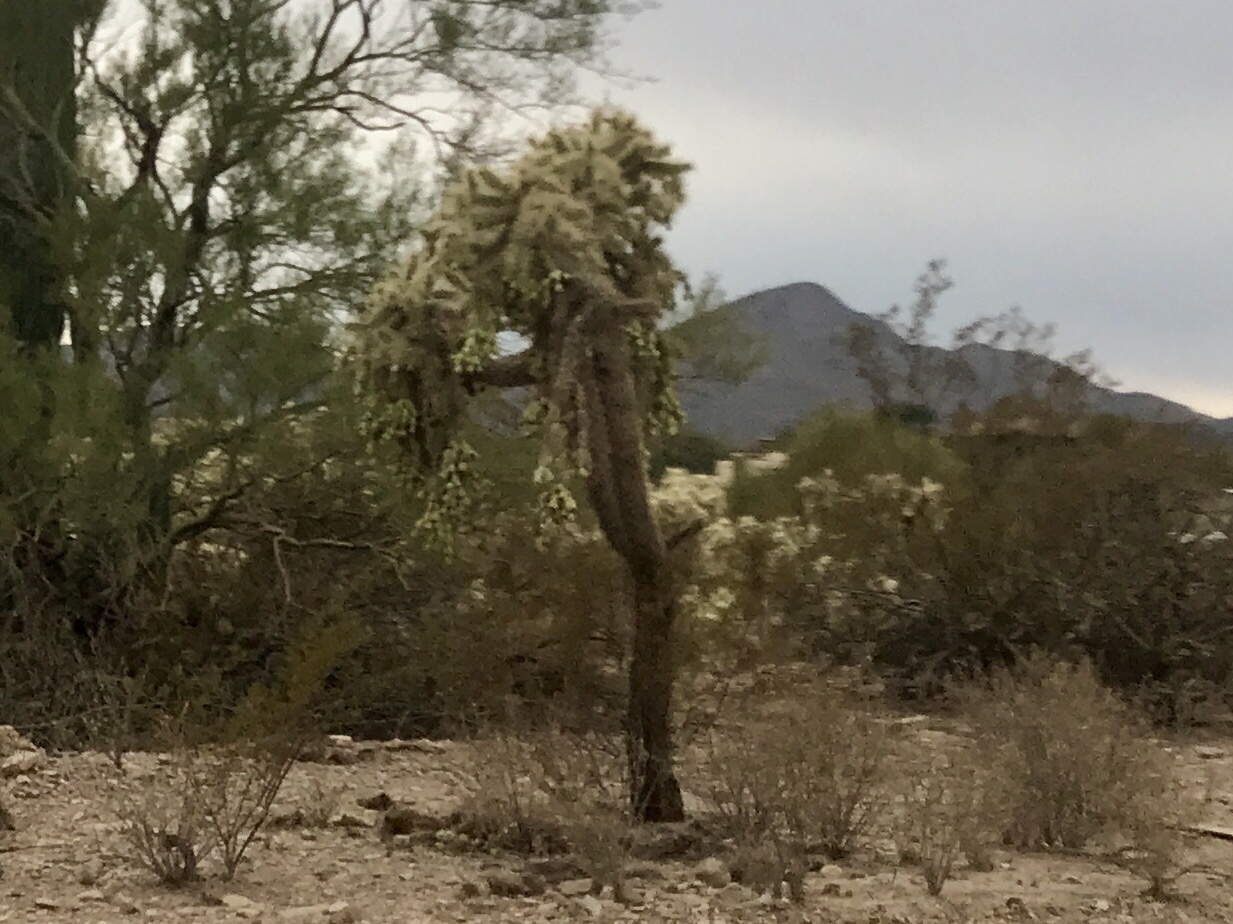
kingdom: Plantae
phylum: Tracheophyta
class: Magnoliopsida
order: Caryophyllales
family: Cactaceae
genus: Cylindropuntia
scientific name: Cylindropuntia fulgida
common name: Jumping cholla
